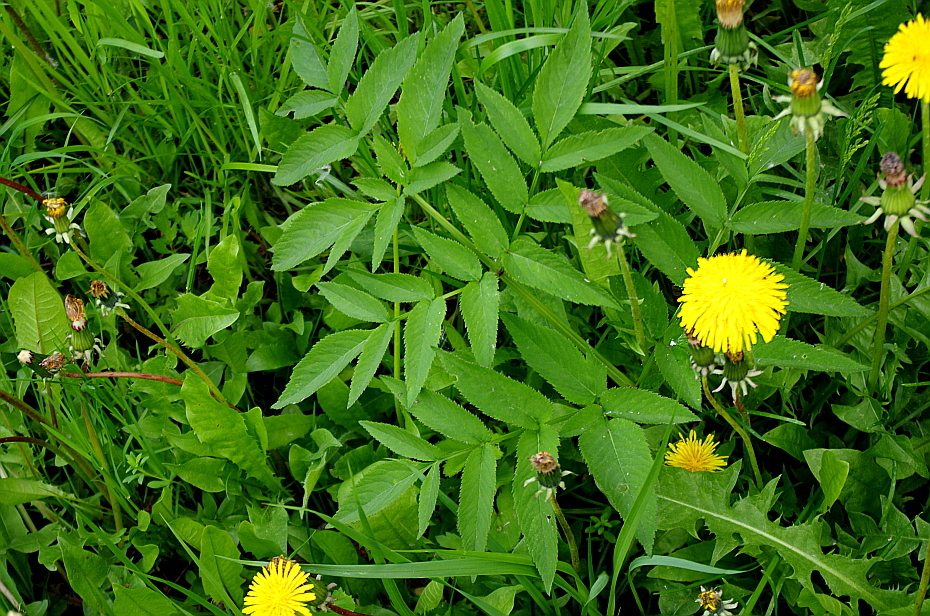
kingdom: Plantae
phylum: Tracheophyta
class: Magnoliopsida
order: Apiales
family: Apiaceae
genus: Angelica
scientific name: Angelica sylvestris
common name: Wild angelica
